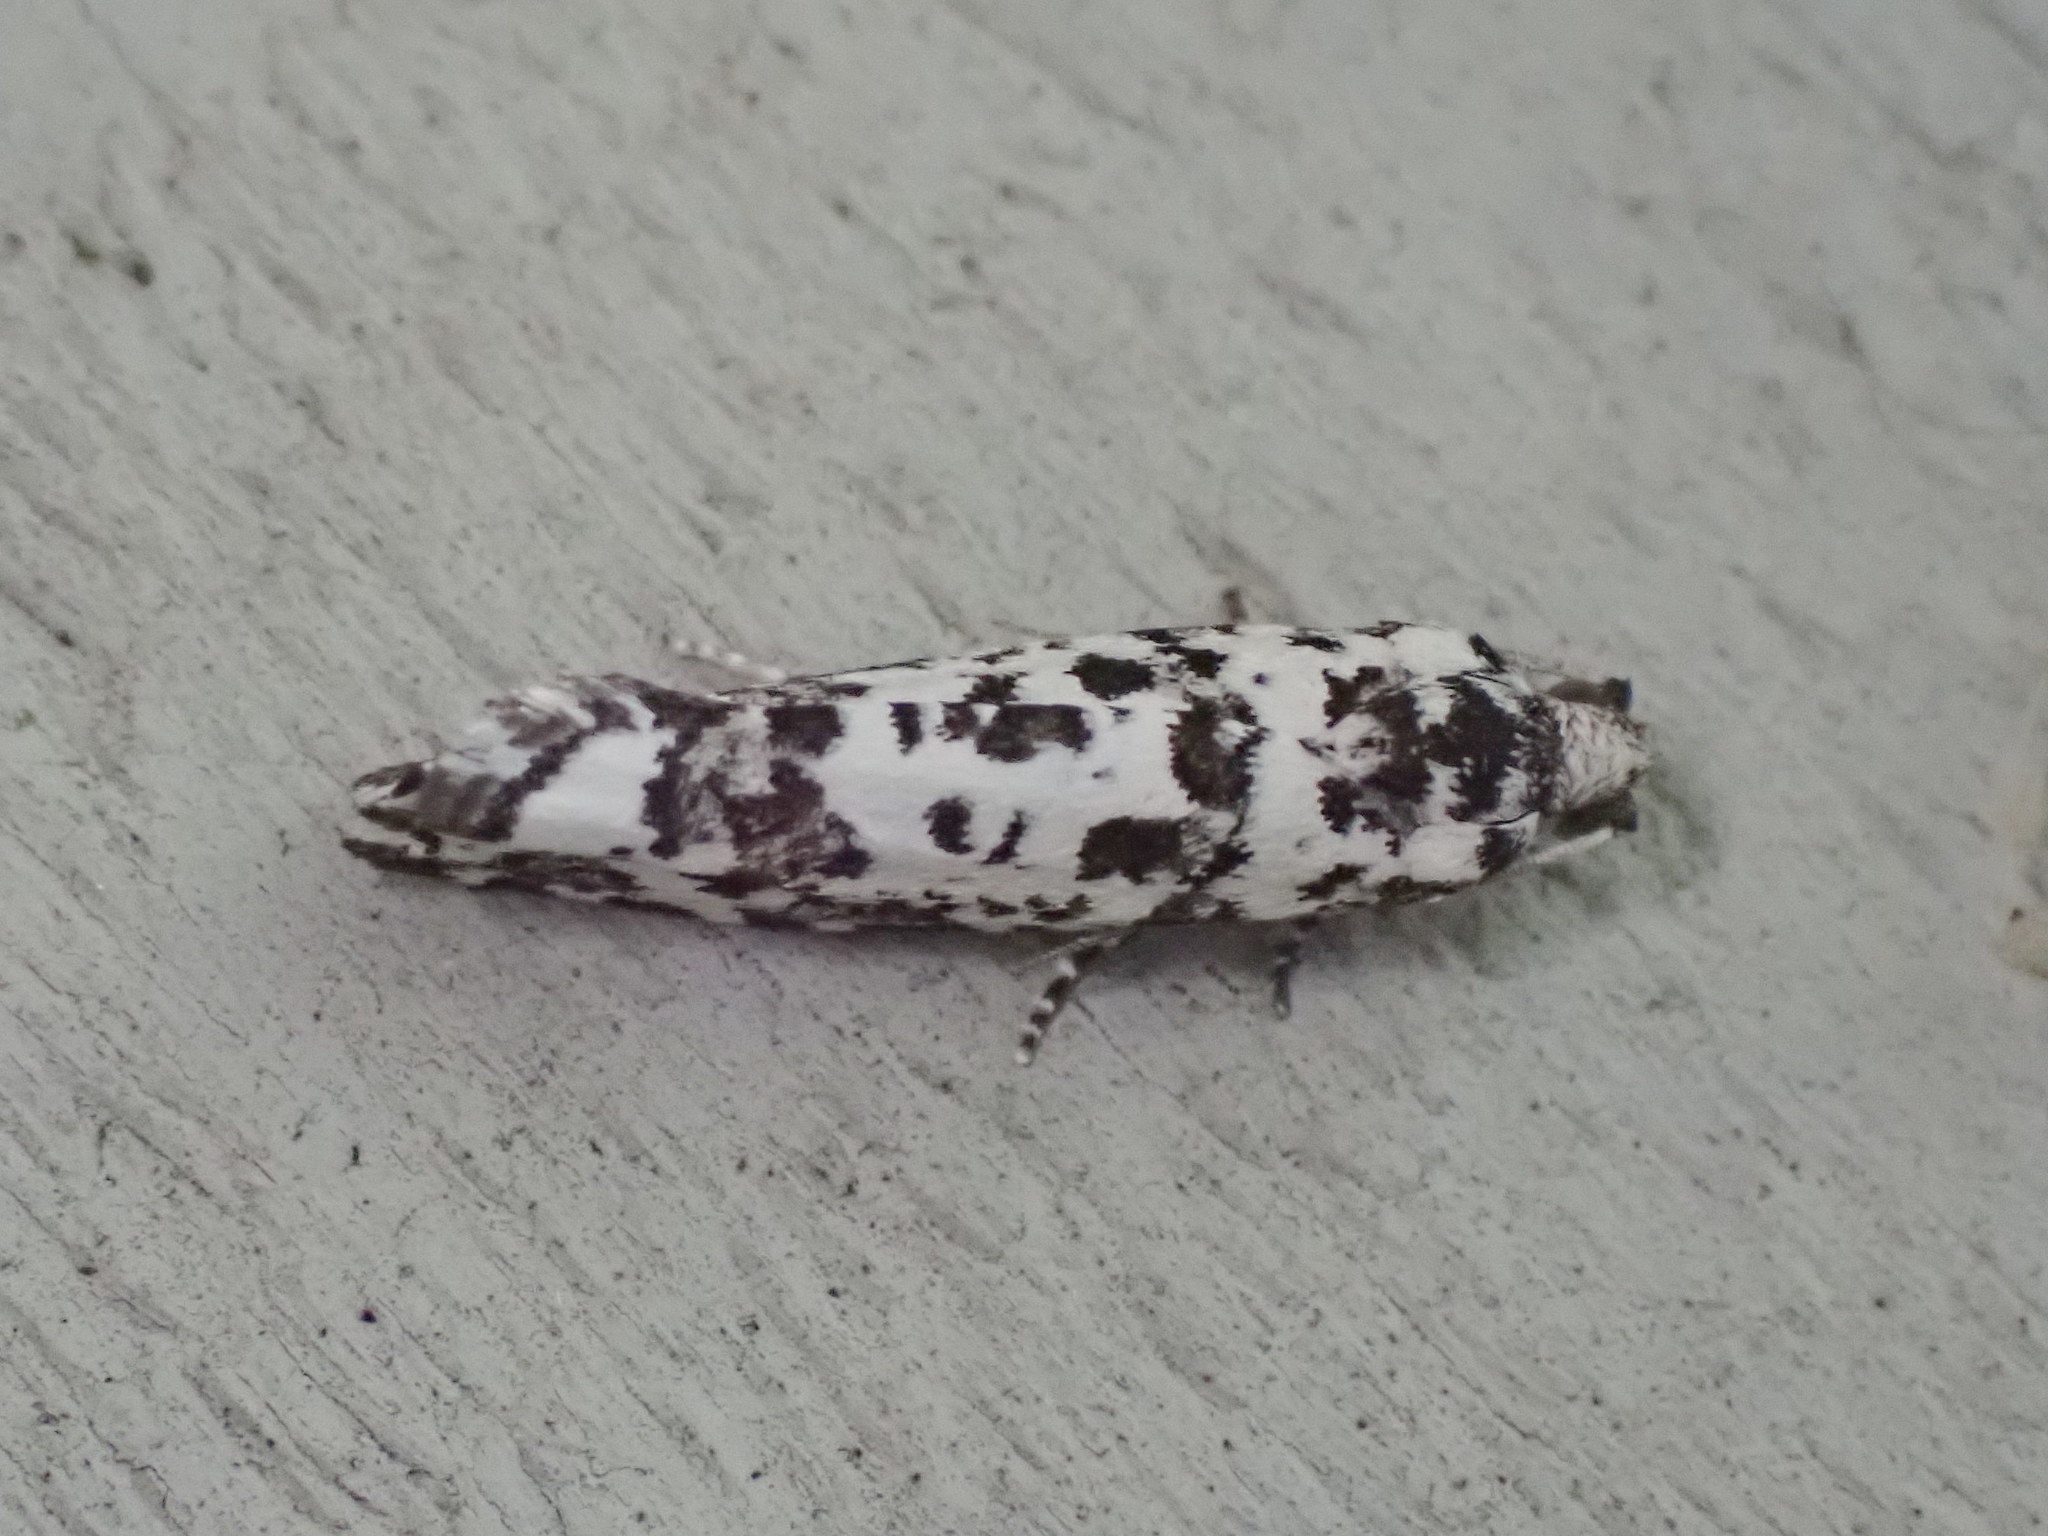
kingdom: Animalia
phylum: Arthropoda
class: Insecta
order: Lepidoptera
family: Tortricidae
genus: Retinia
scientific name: Retinia burkeana
